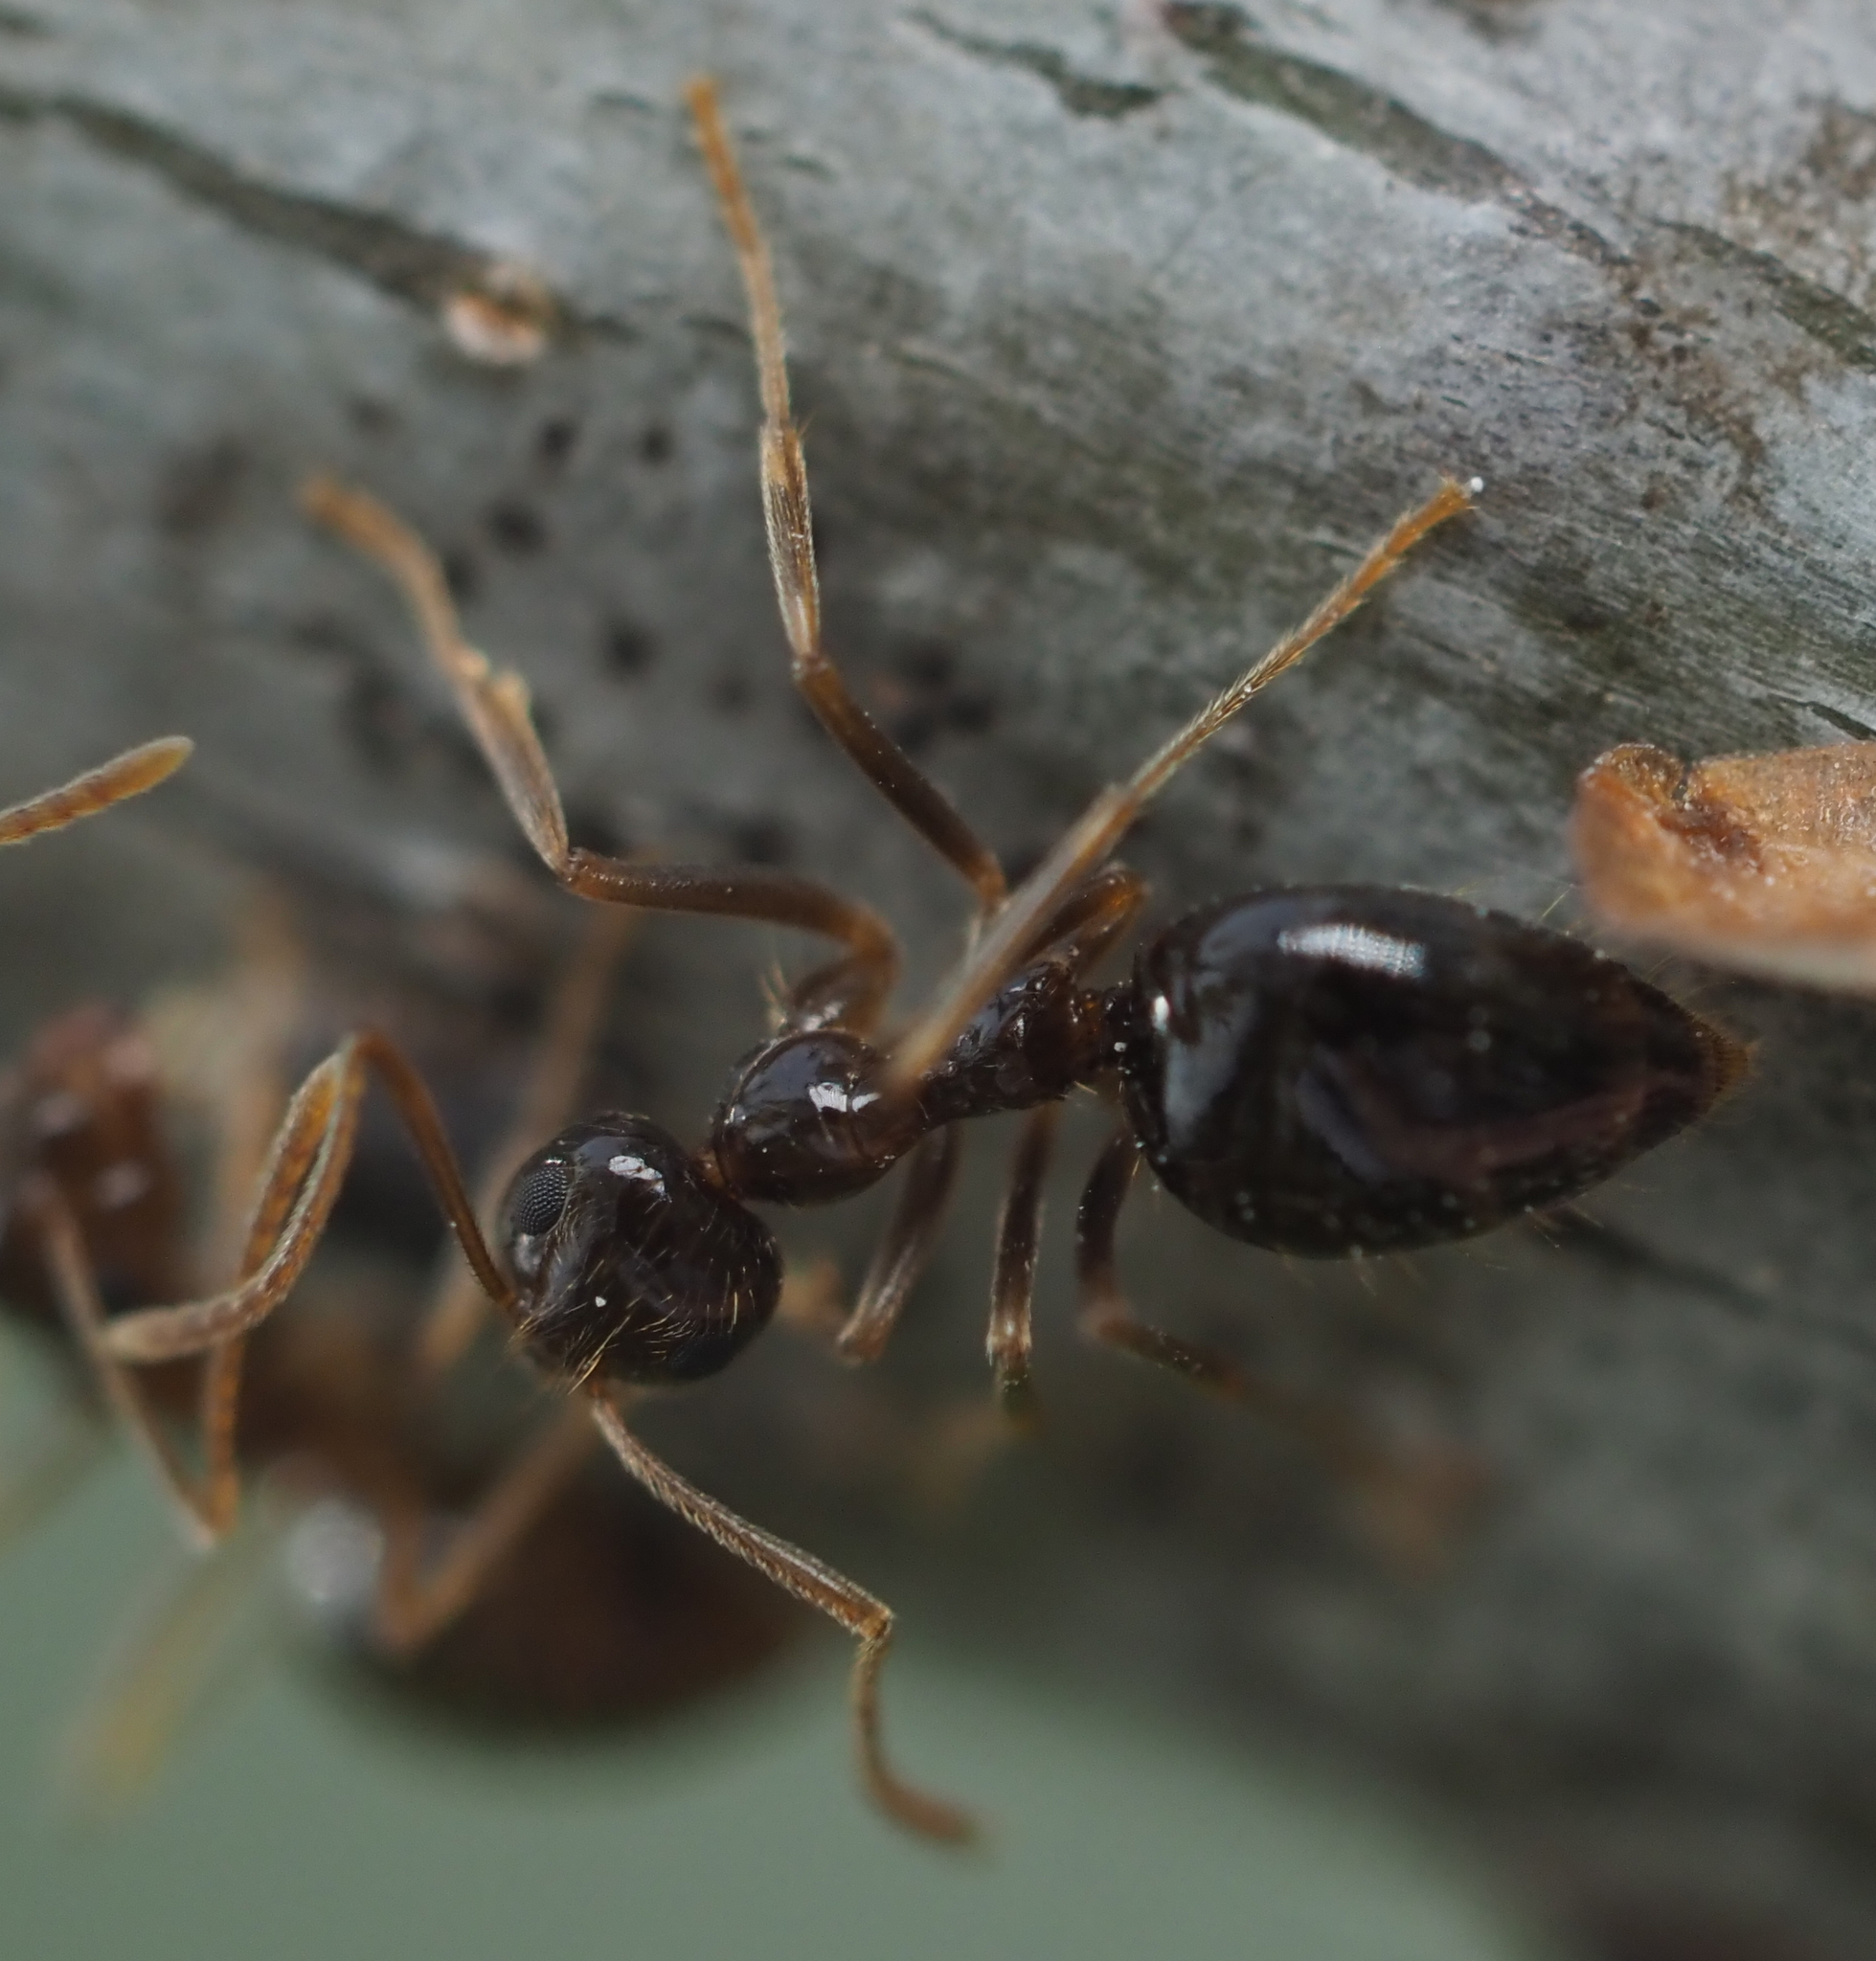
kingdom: Animalia
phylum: Arthropoda
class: Insecta
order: Hymenoptera
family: Formicidae
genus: Prenolepis
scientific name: Prenolepis imparis
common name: Small honey ant
